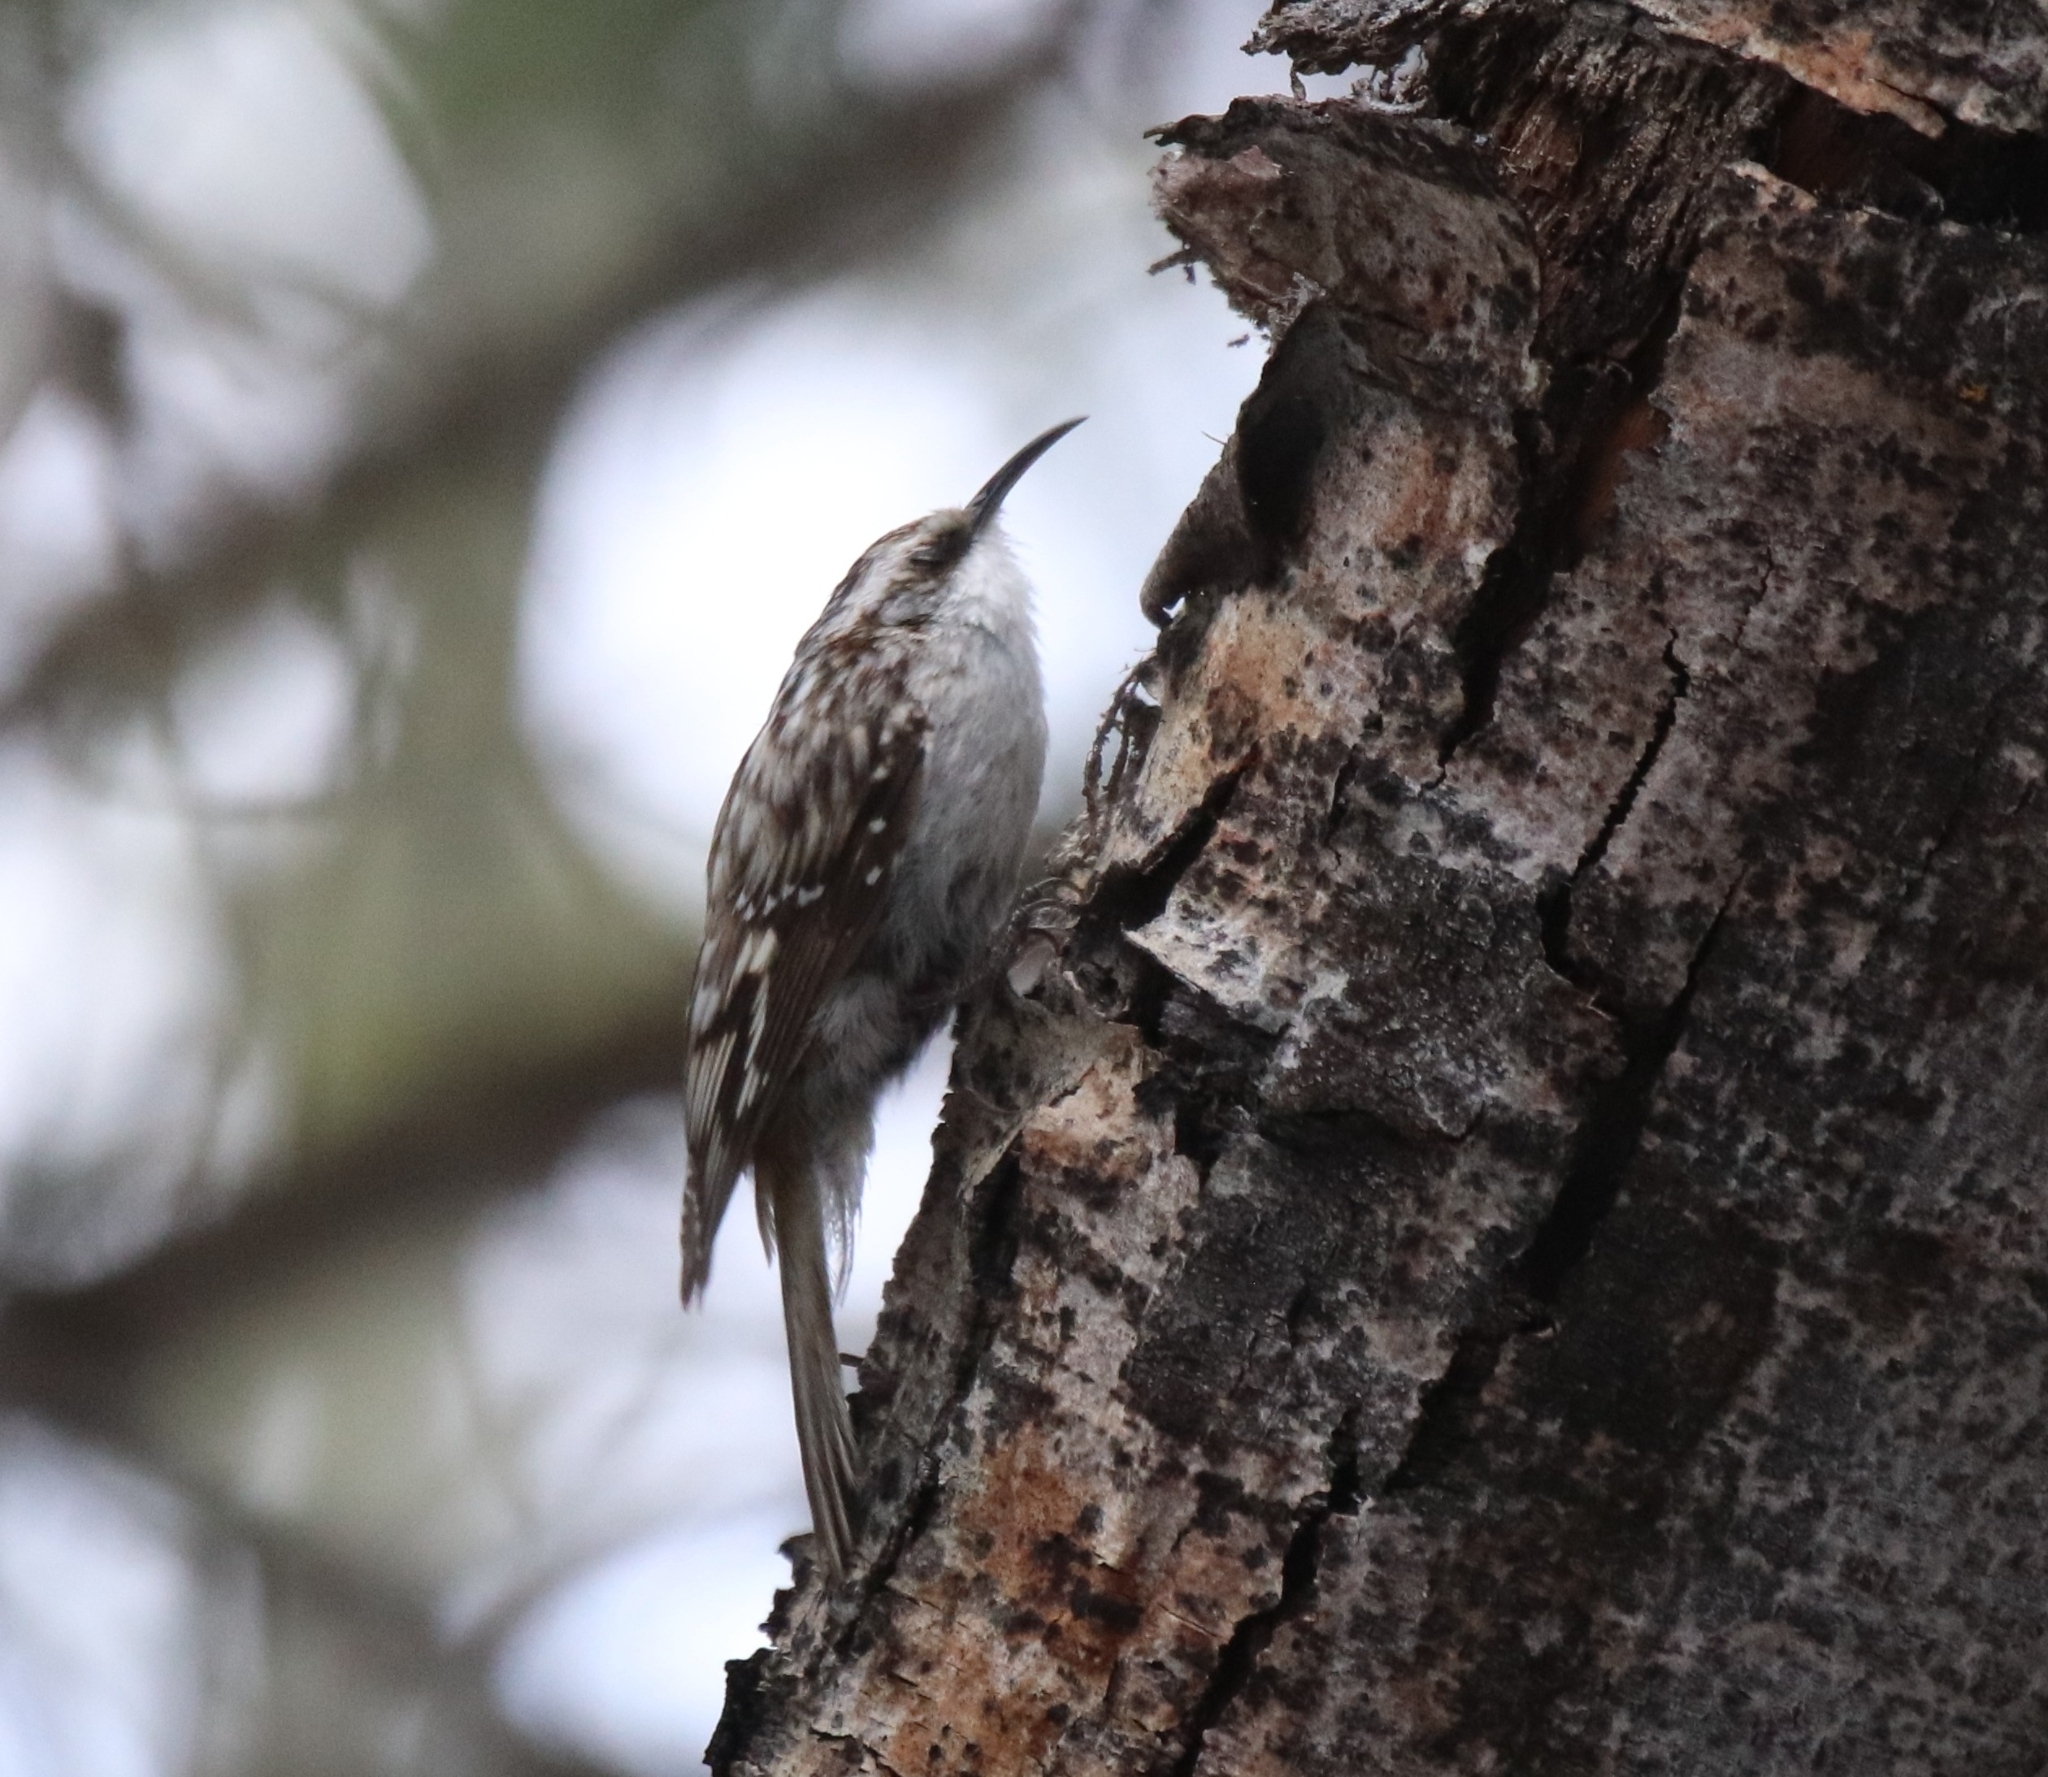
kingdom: Animalia
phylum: Chordata
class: Aves
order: Passeriformes
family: Certhiidae
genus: Certhia
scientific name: Certhia americana
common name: Brown creeper
